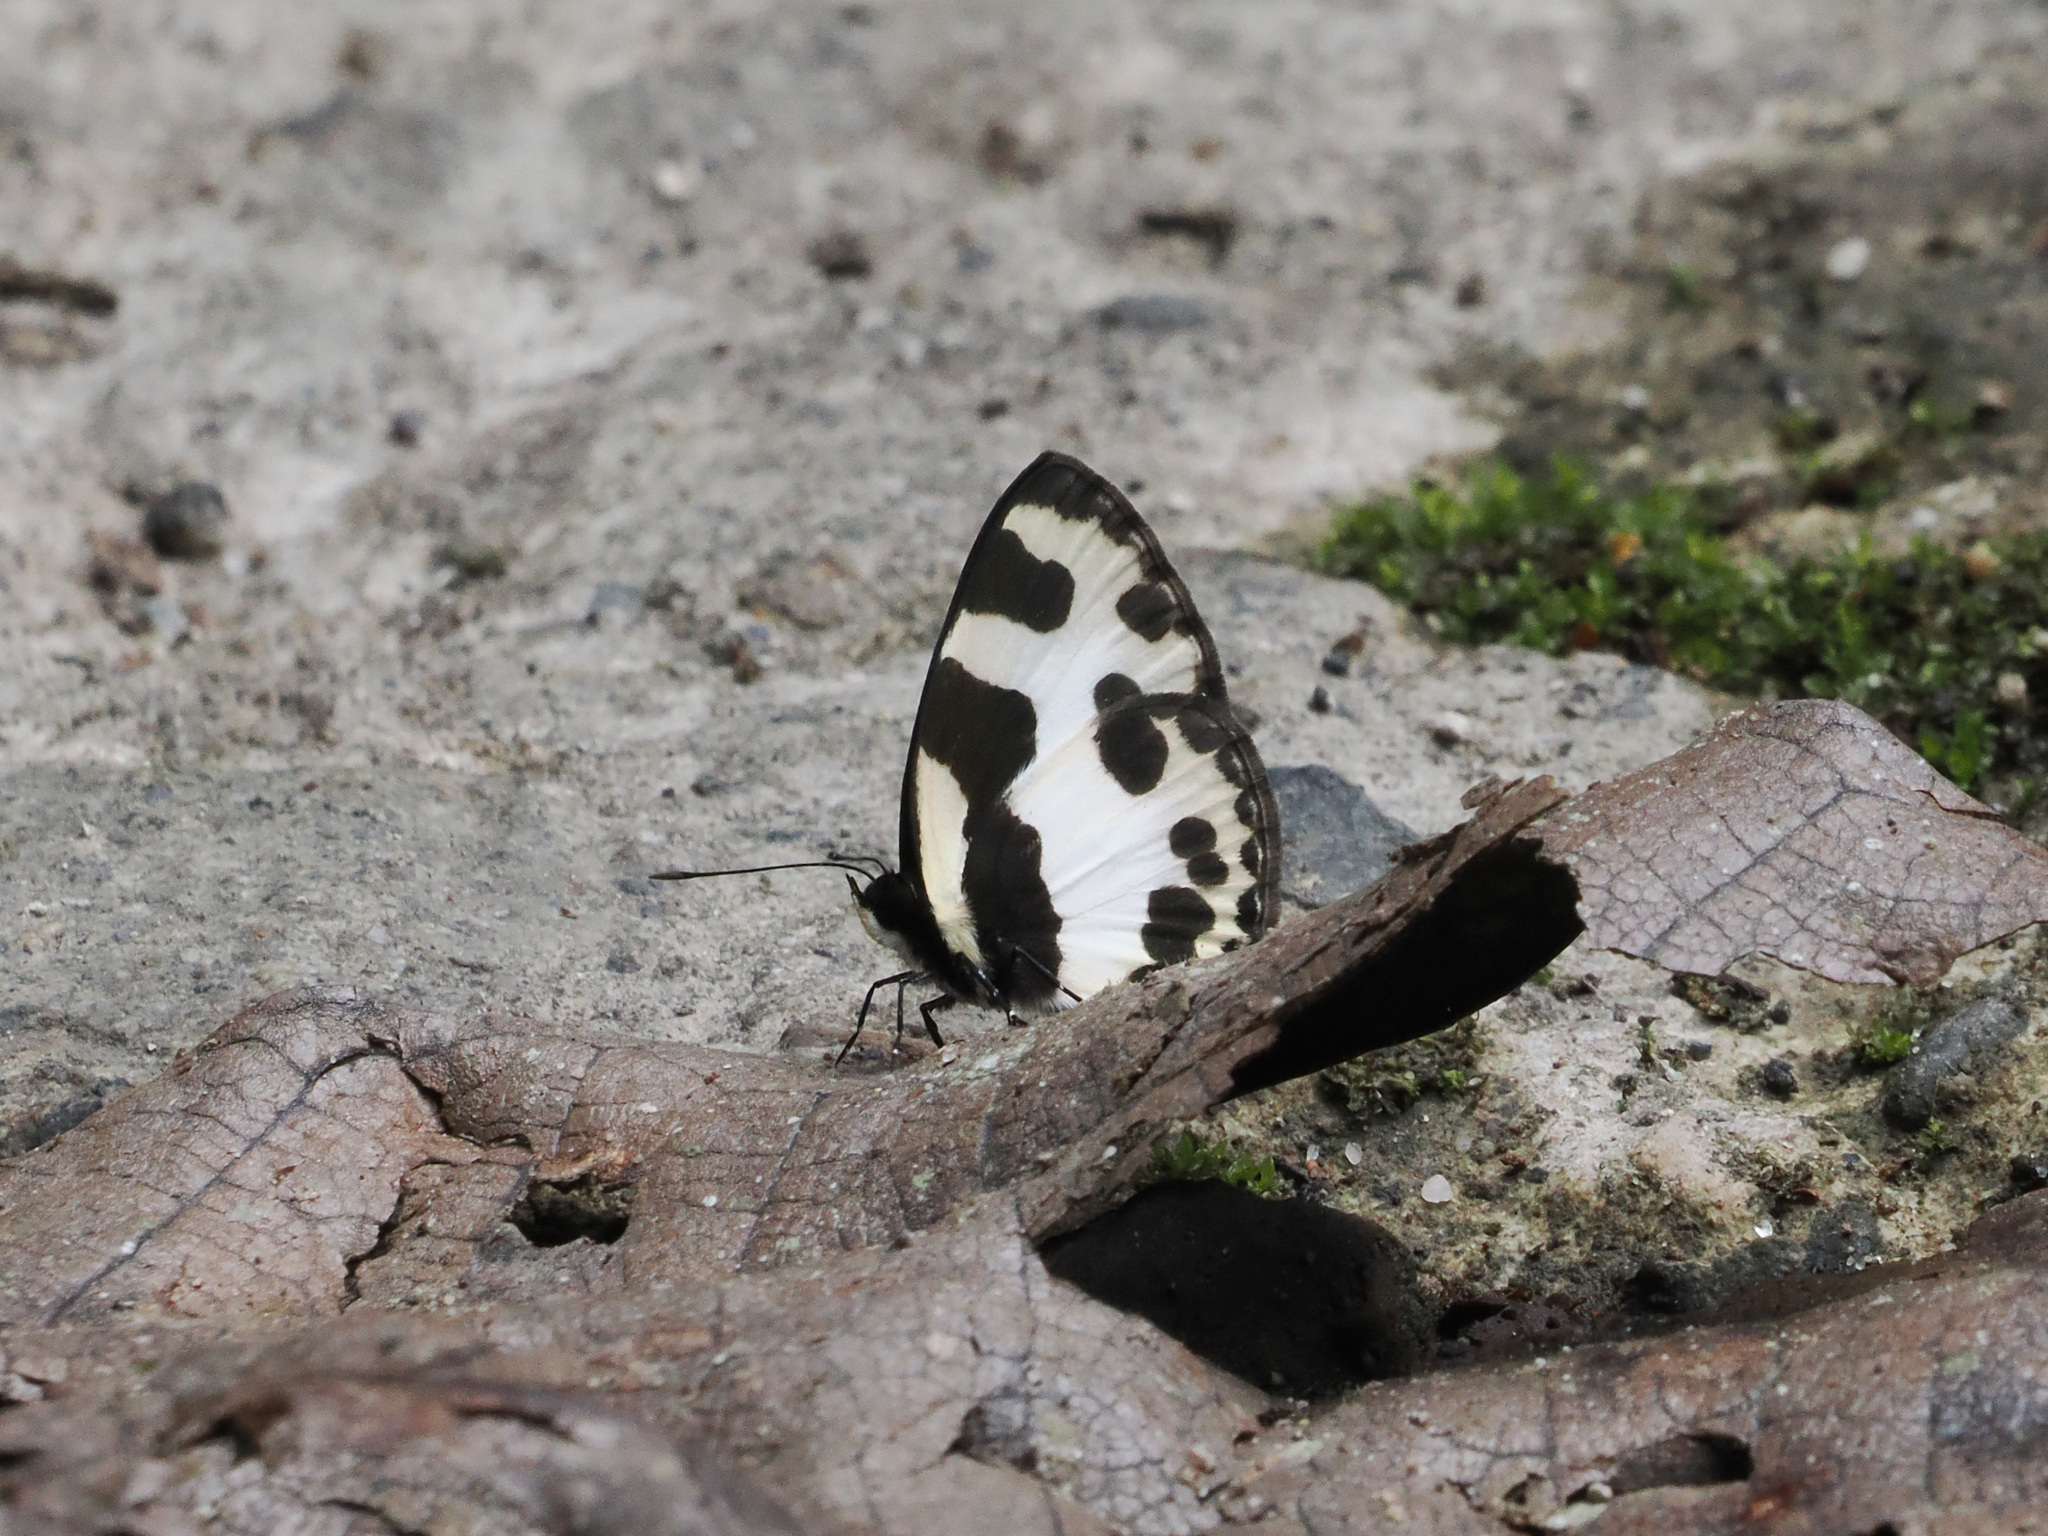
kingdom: Animalia
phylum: Arthropoda
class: Insecta
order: Lepidoptera
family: Lycaenidae
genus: Caleta
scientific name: Caleta elna
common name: Elbowed pierrot
